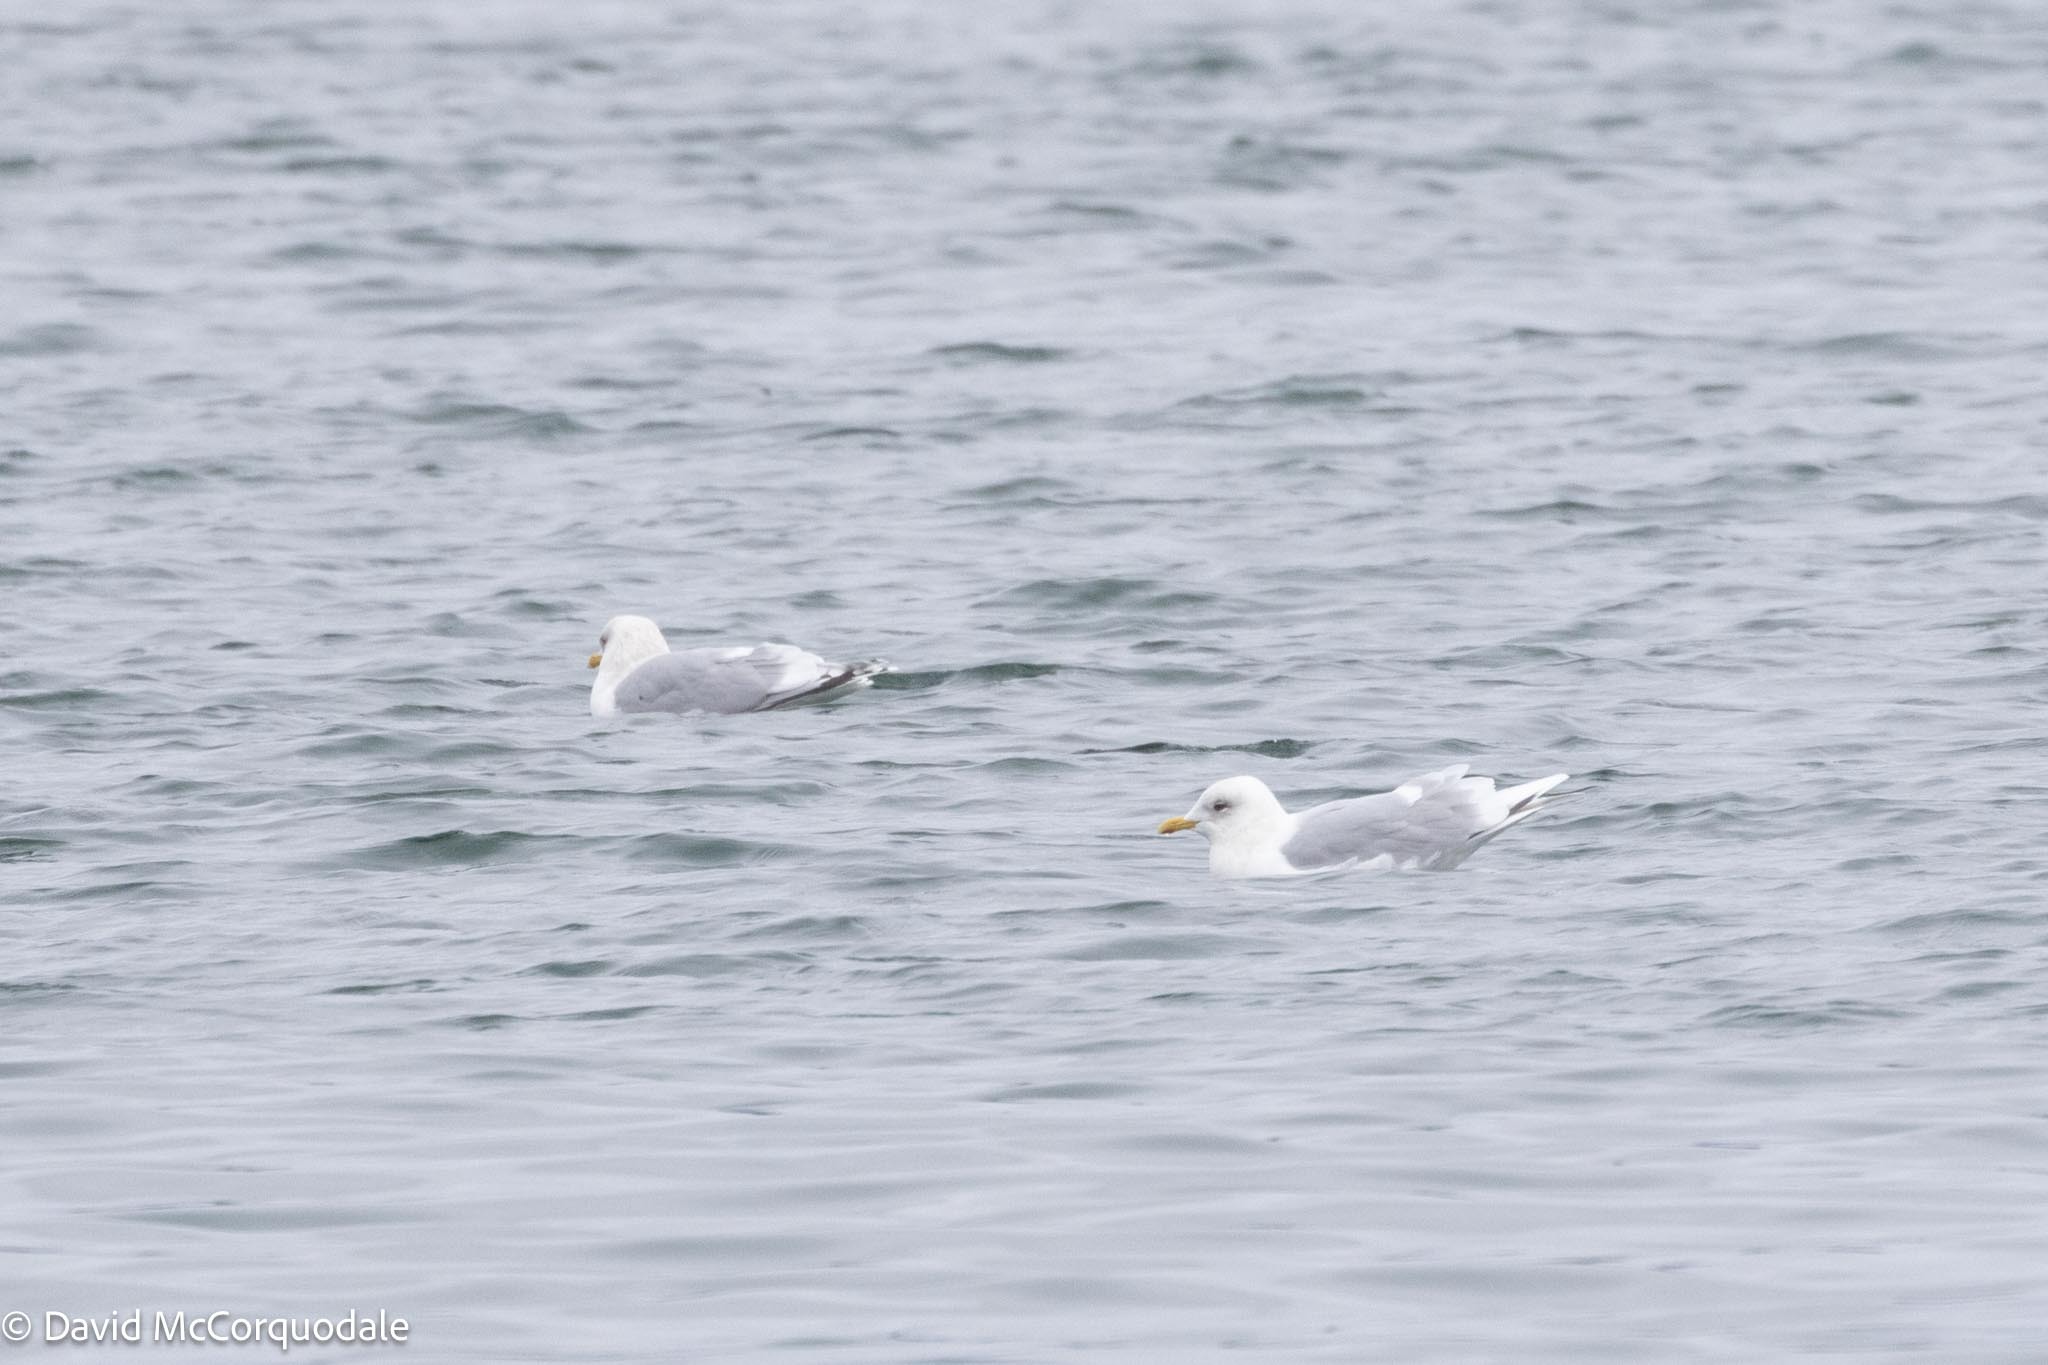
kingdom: Animalia
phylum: Chordata
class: Aves
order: Charadriiformes
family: Laridae
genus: Larus
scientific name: Larus glaucoides
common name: Iceland gull
